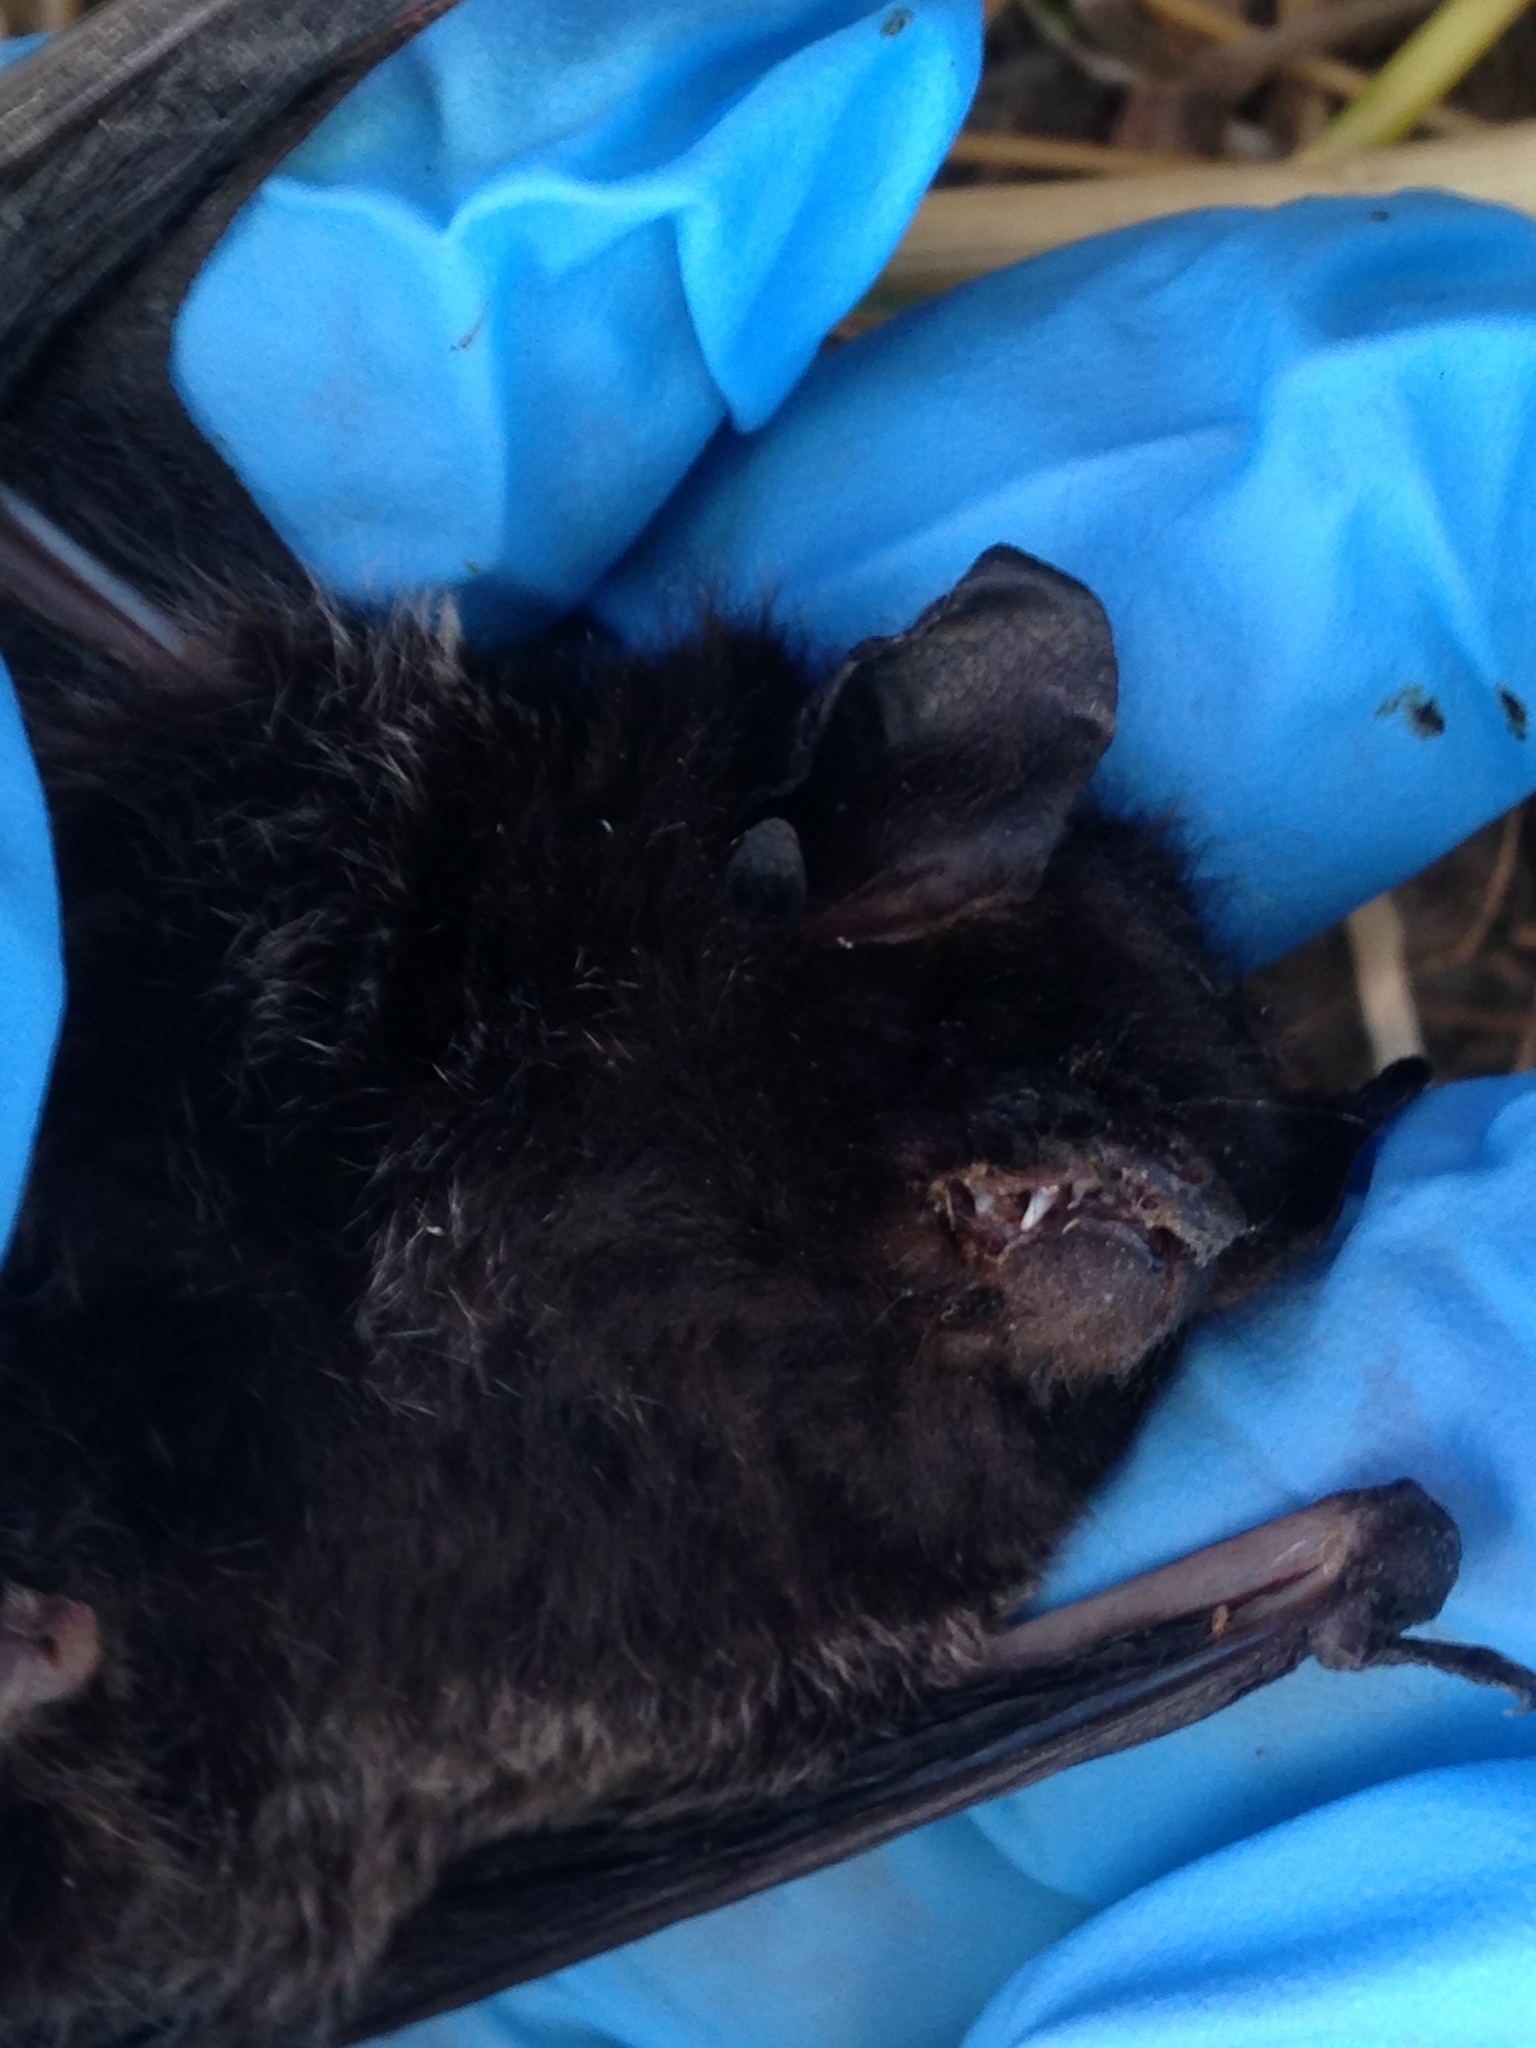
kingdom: Animalia
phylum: Chordata
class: Mammalia
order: Chiroptera
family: Vespertilionidae
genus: Lasionycteris
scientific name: Lasionycteris noctivagans
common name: Silver-haired bat
